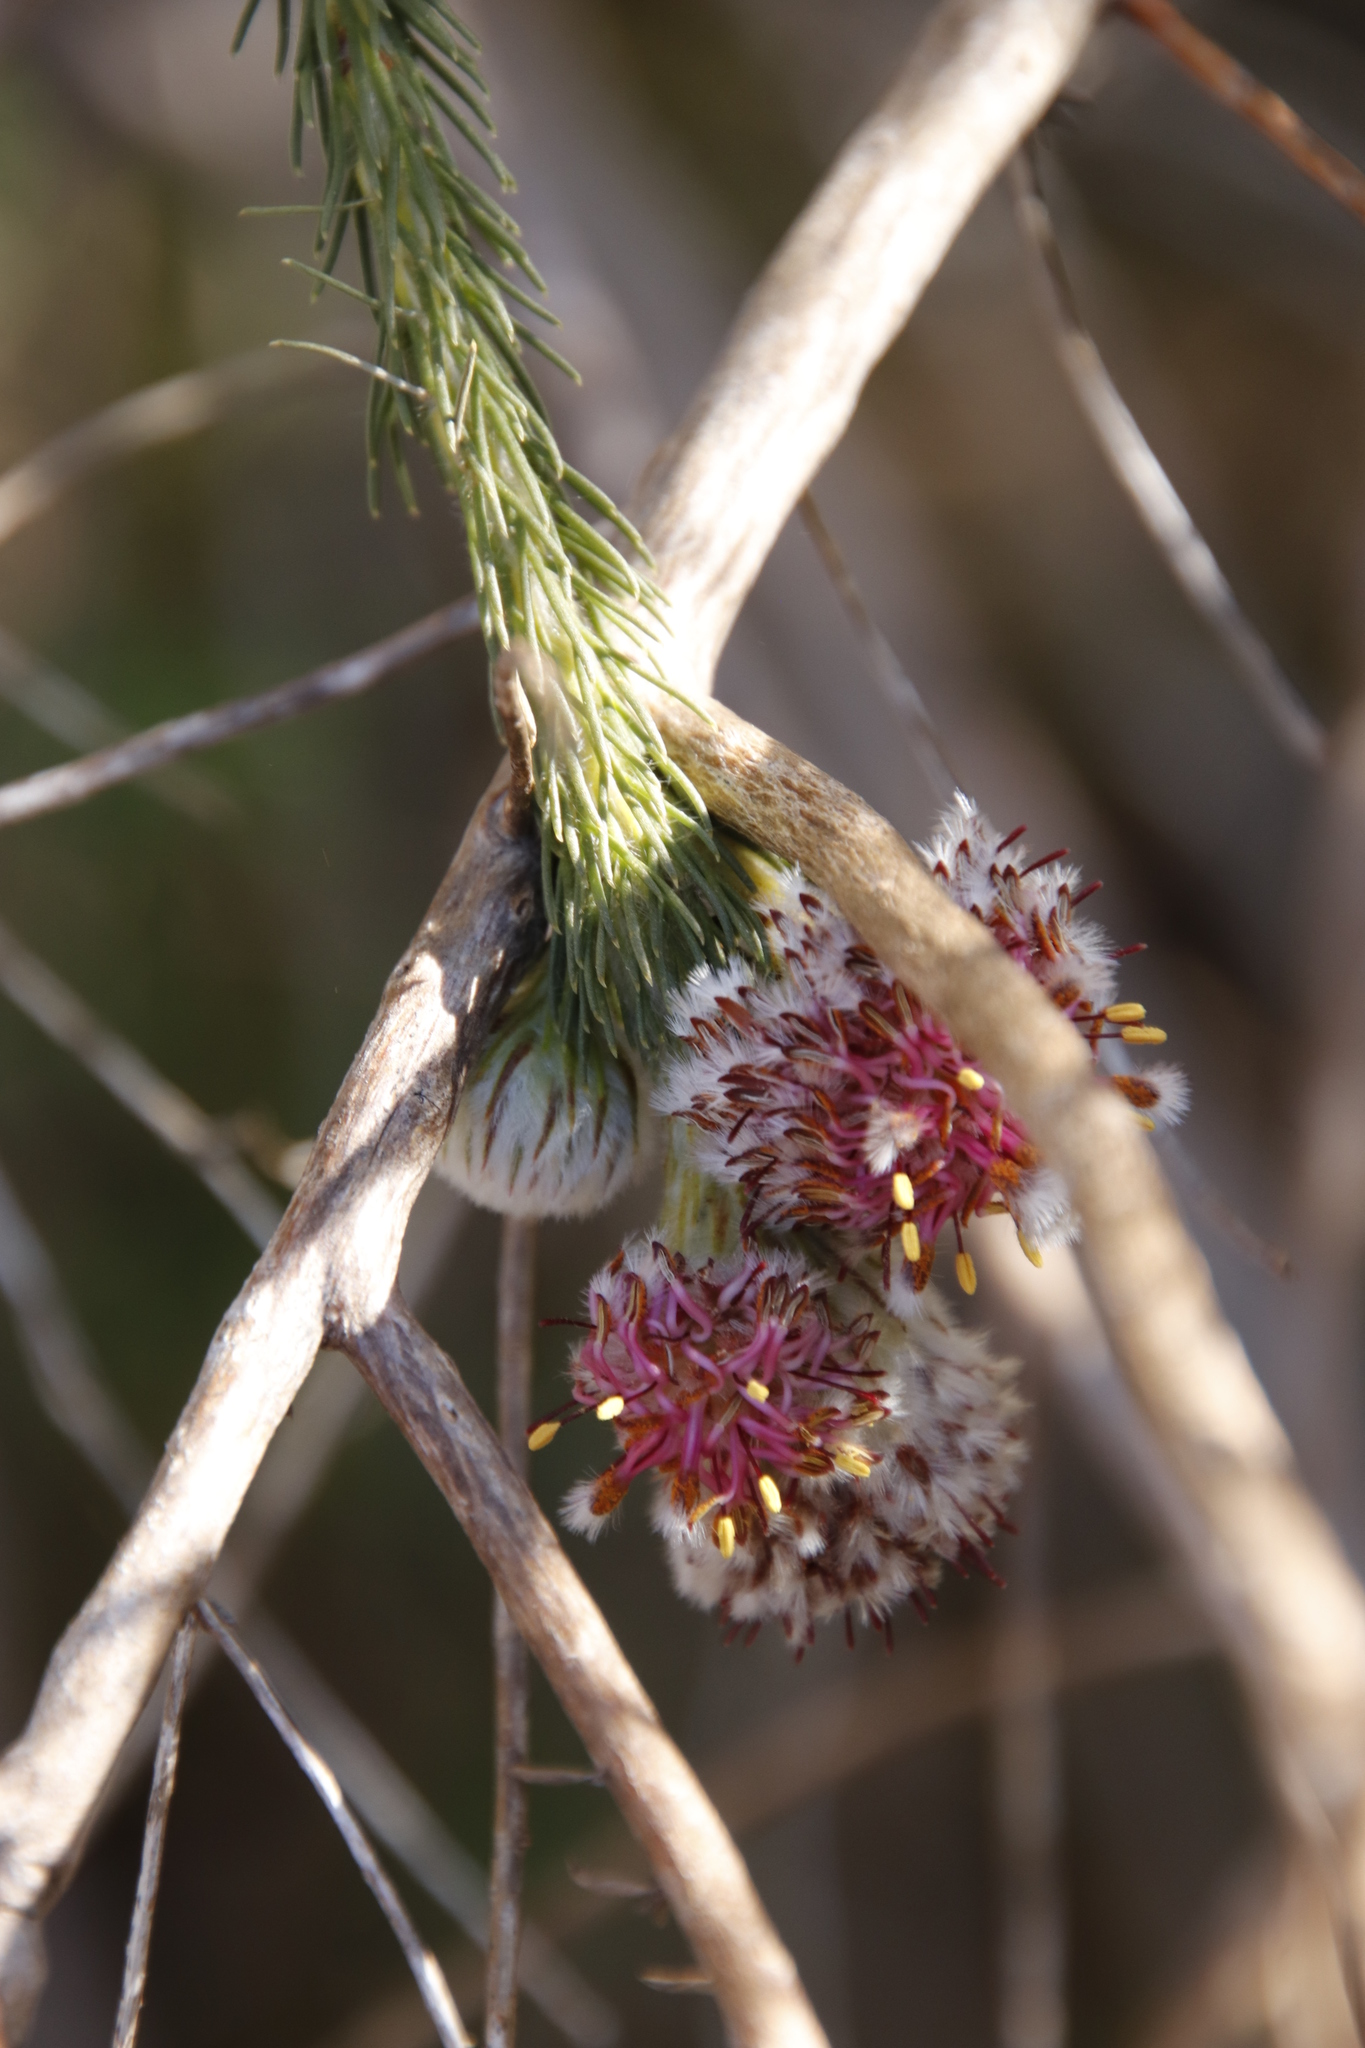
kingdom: Plantae
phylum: Tracheophyta
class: Magnoliopsida
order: Proteales
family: Proteaceae
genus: Serruria
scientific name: Serruria trilopha
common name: Trident spiderhead
